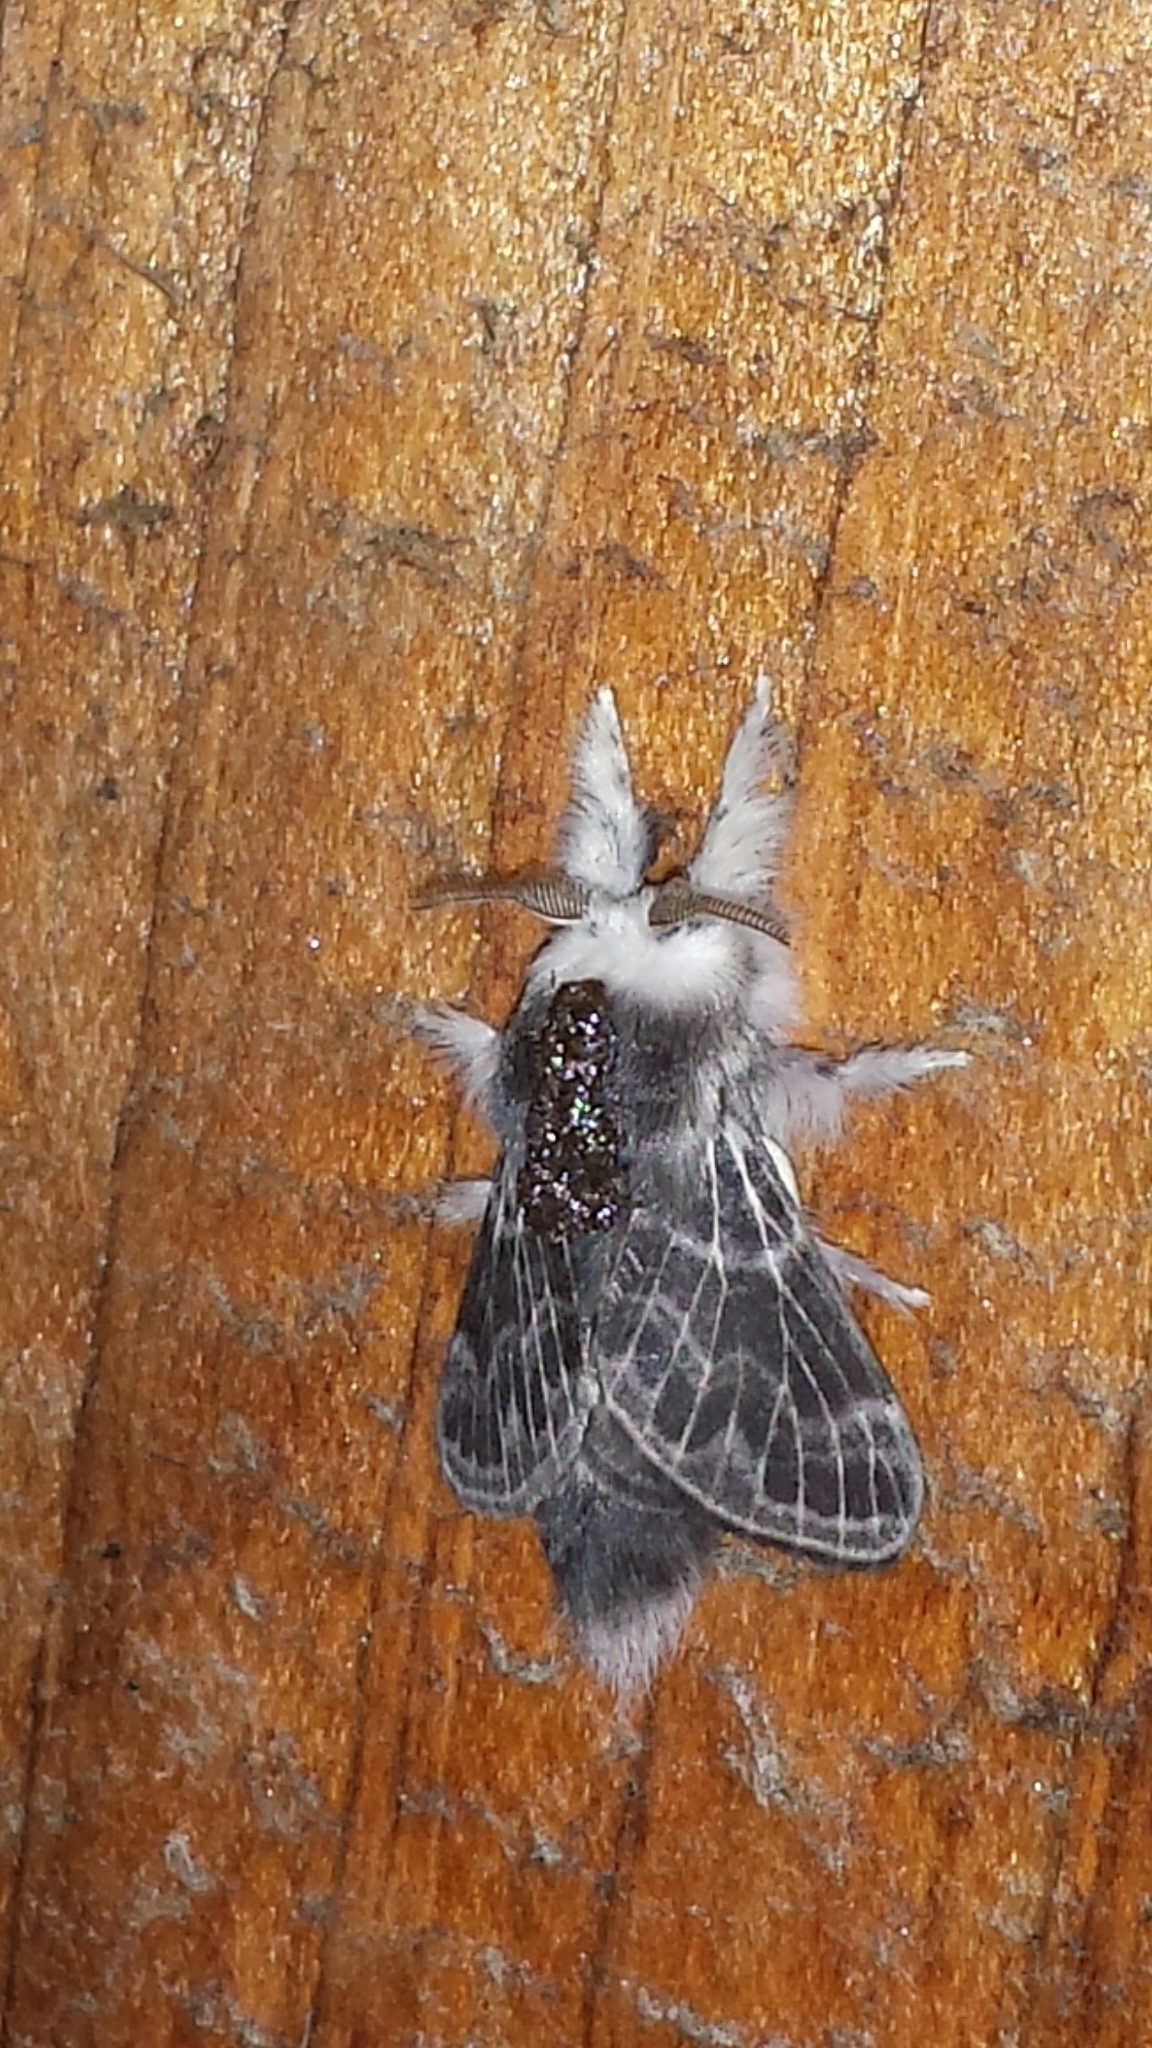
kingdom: Animalia
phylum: Arthropoda
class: Insecta
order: Lepidoptera
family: Lasiocampidae
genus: Tolype
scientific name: Tolype laricis
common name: Larch tolype moth
